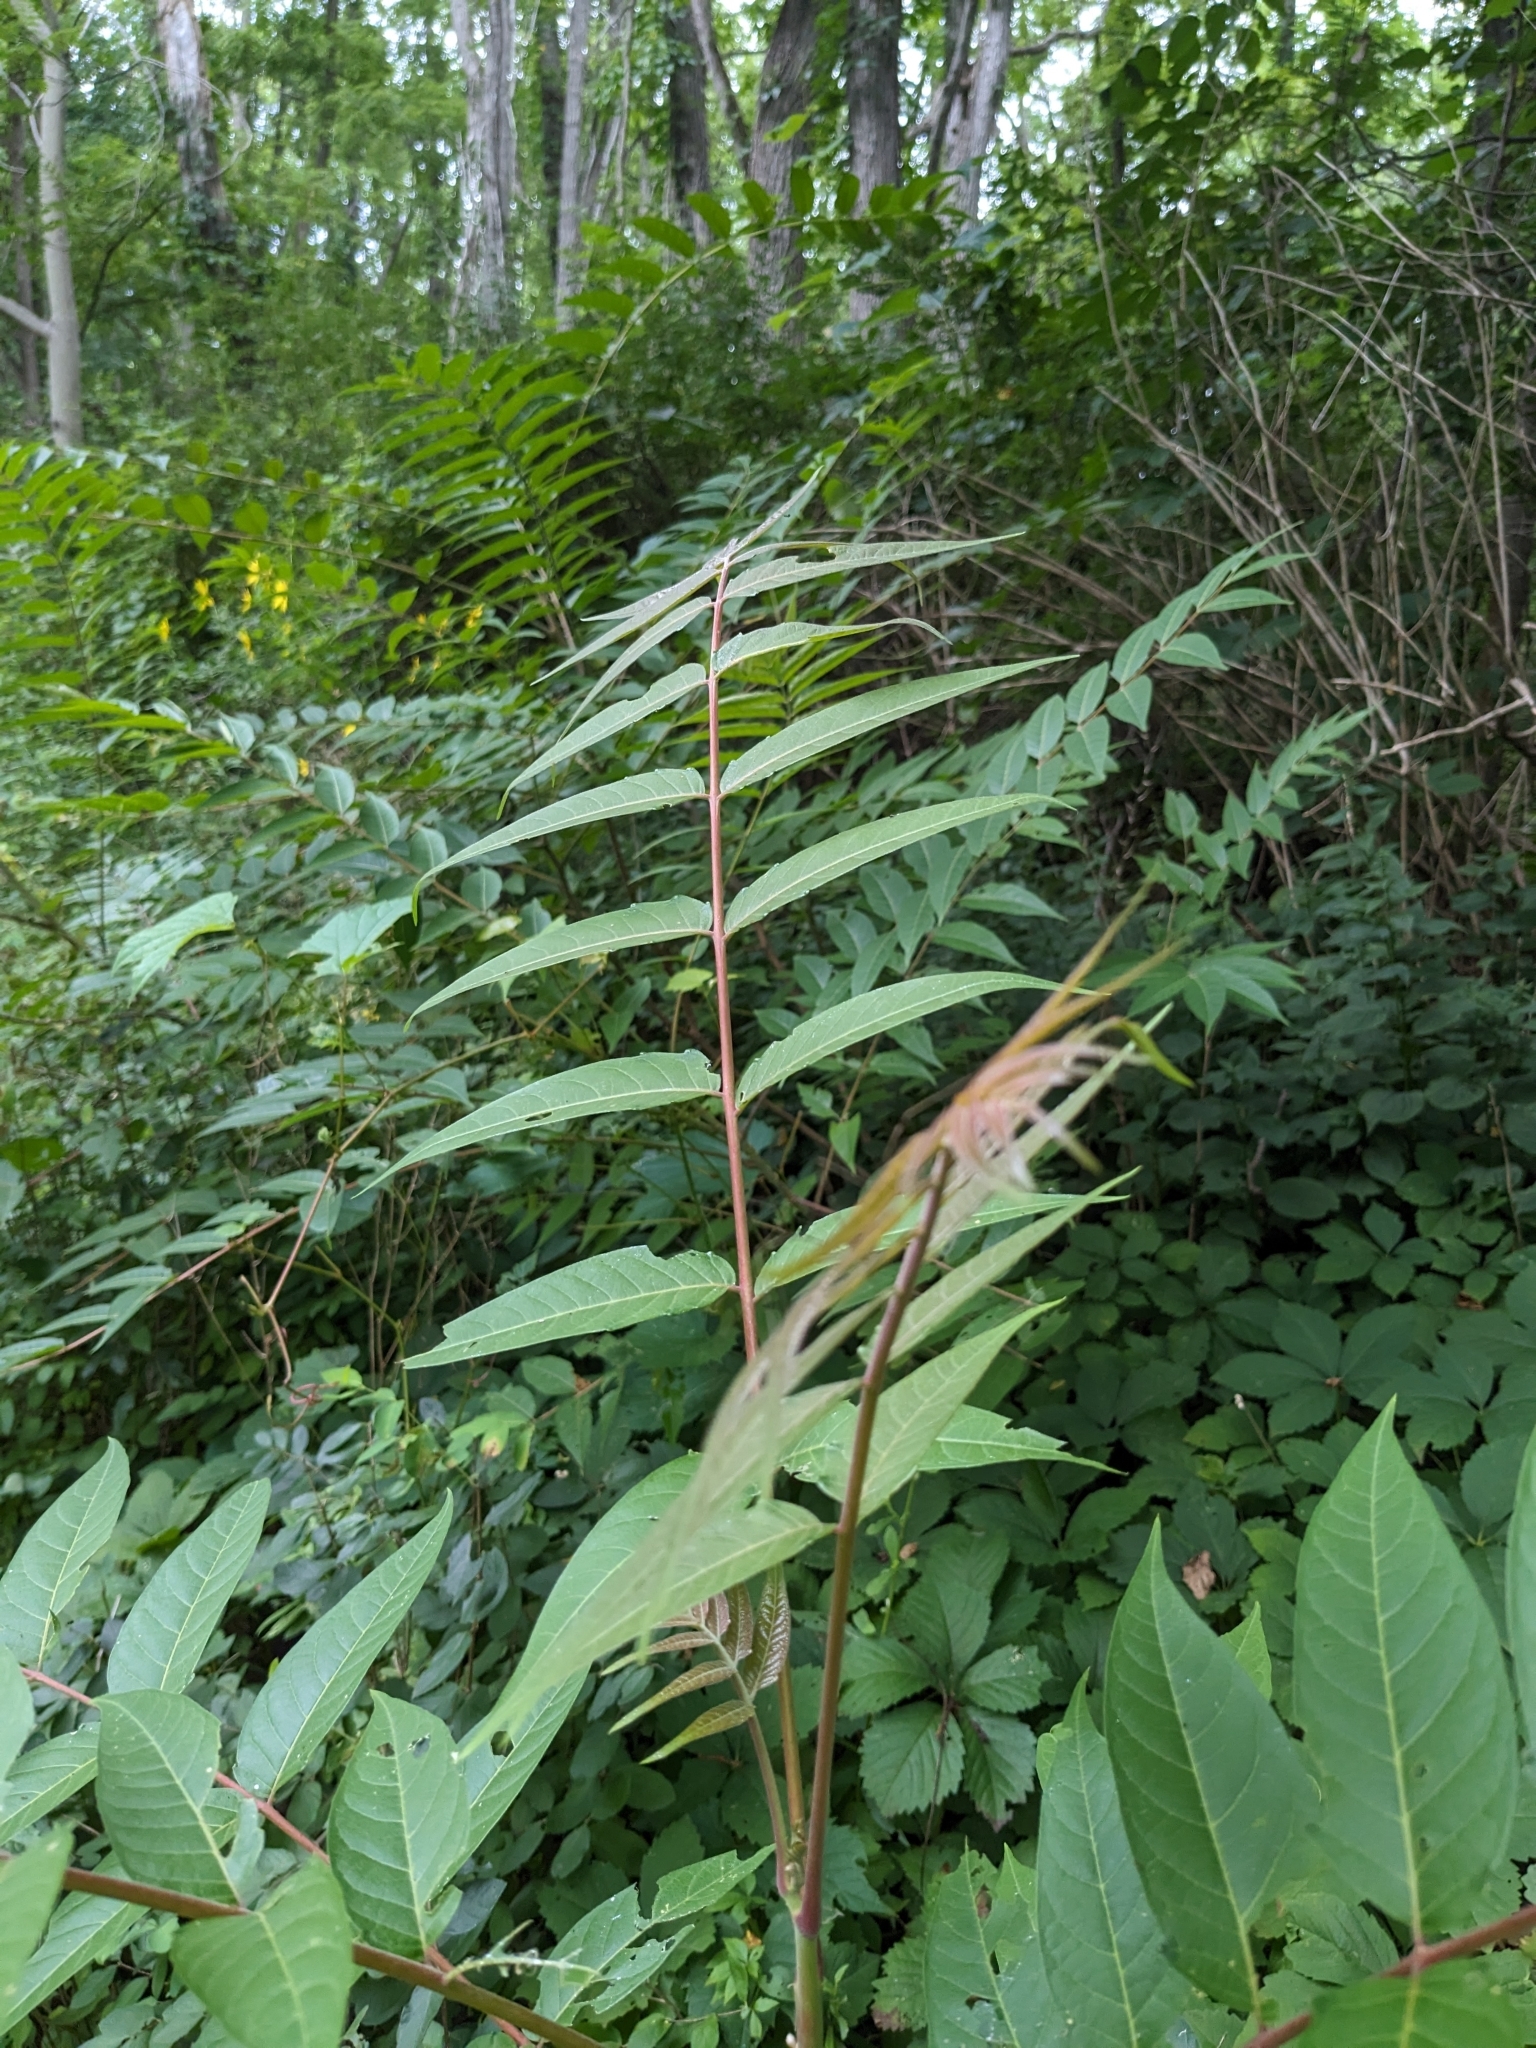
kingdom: Plantae
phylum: Tracheophyta
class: Magnoliopsida
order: Sapindales
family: Simaroubaceae
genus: Ailanthus
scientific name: Ailanthus altissima
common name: Tree-of-heaven
